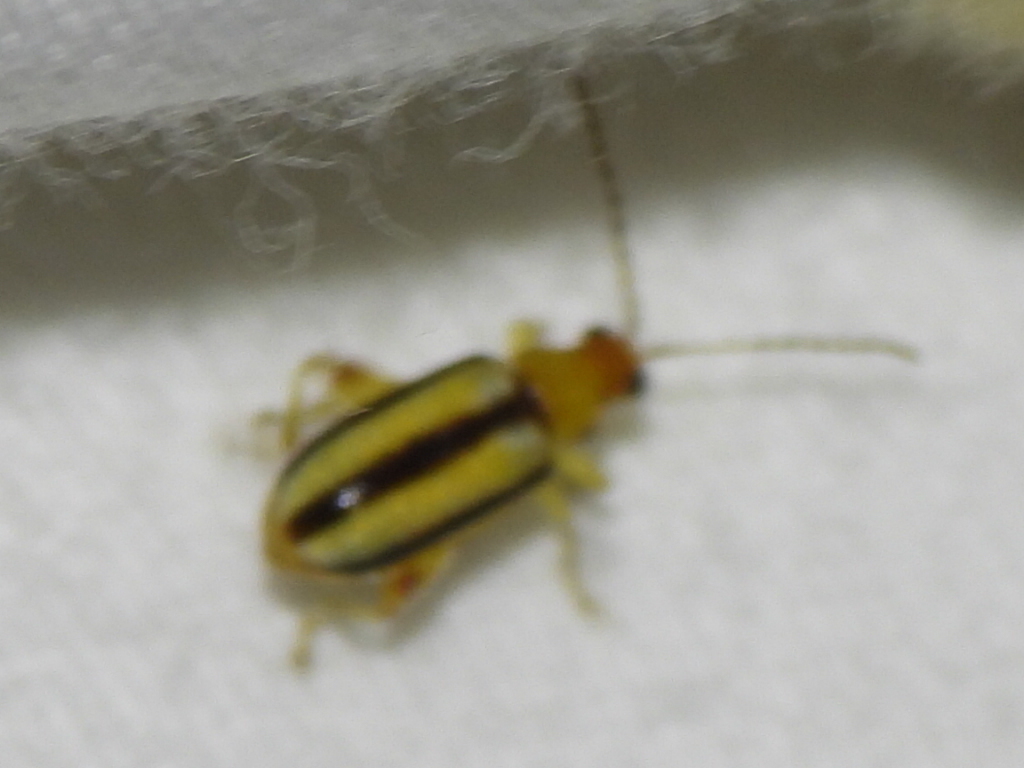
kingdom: Animalia
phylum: Arthropoda
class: Insecta
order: Coleoptera
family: Chrysomelidae
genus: Systena
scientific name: Systena gracilenta
